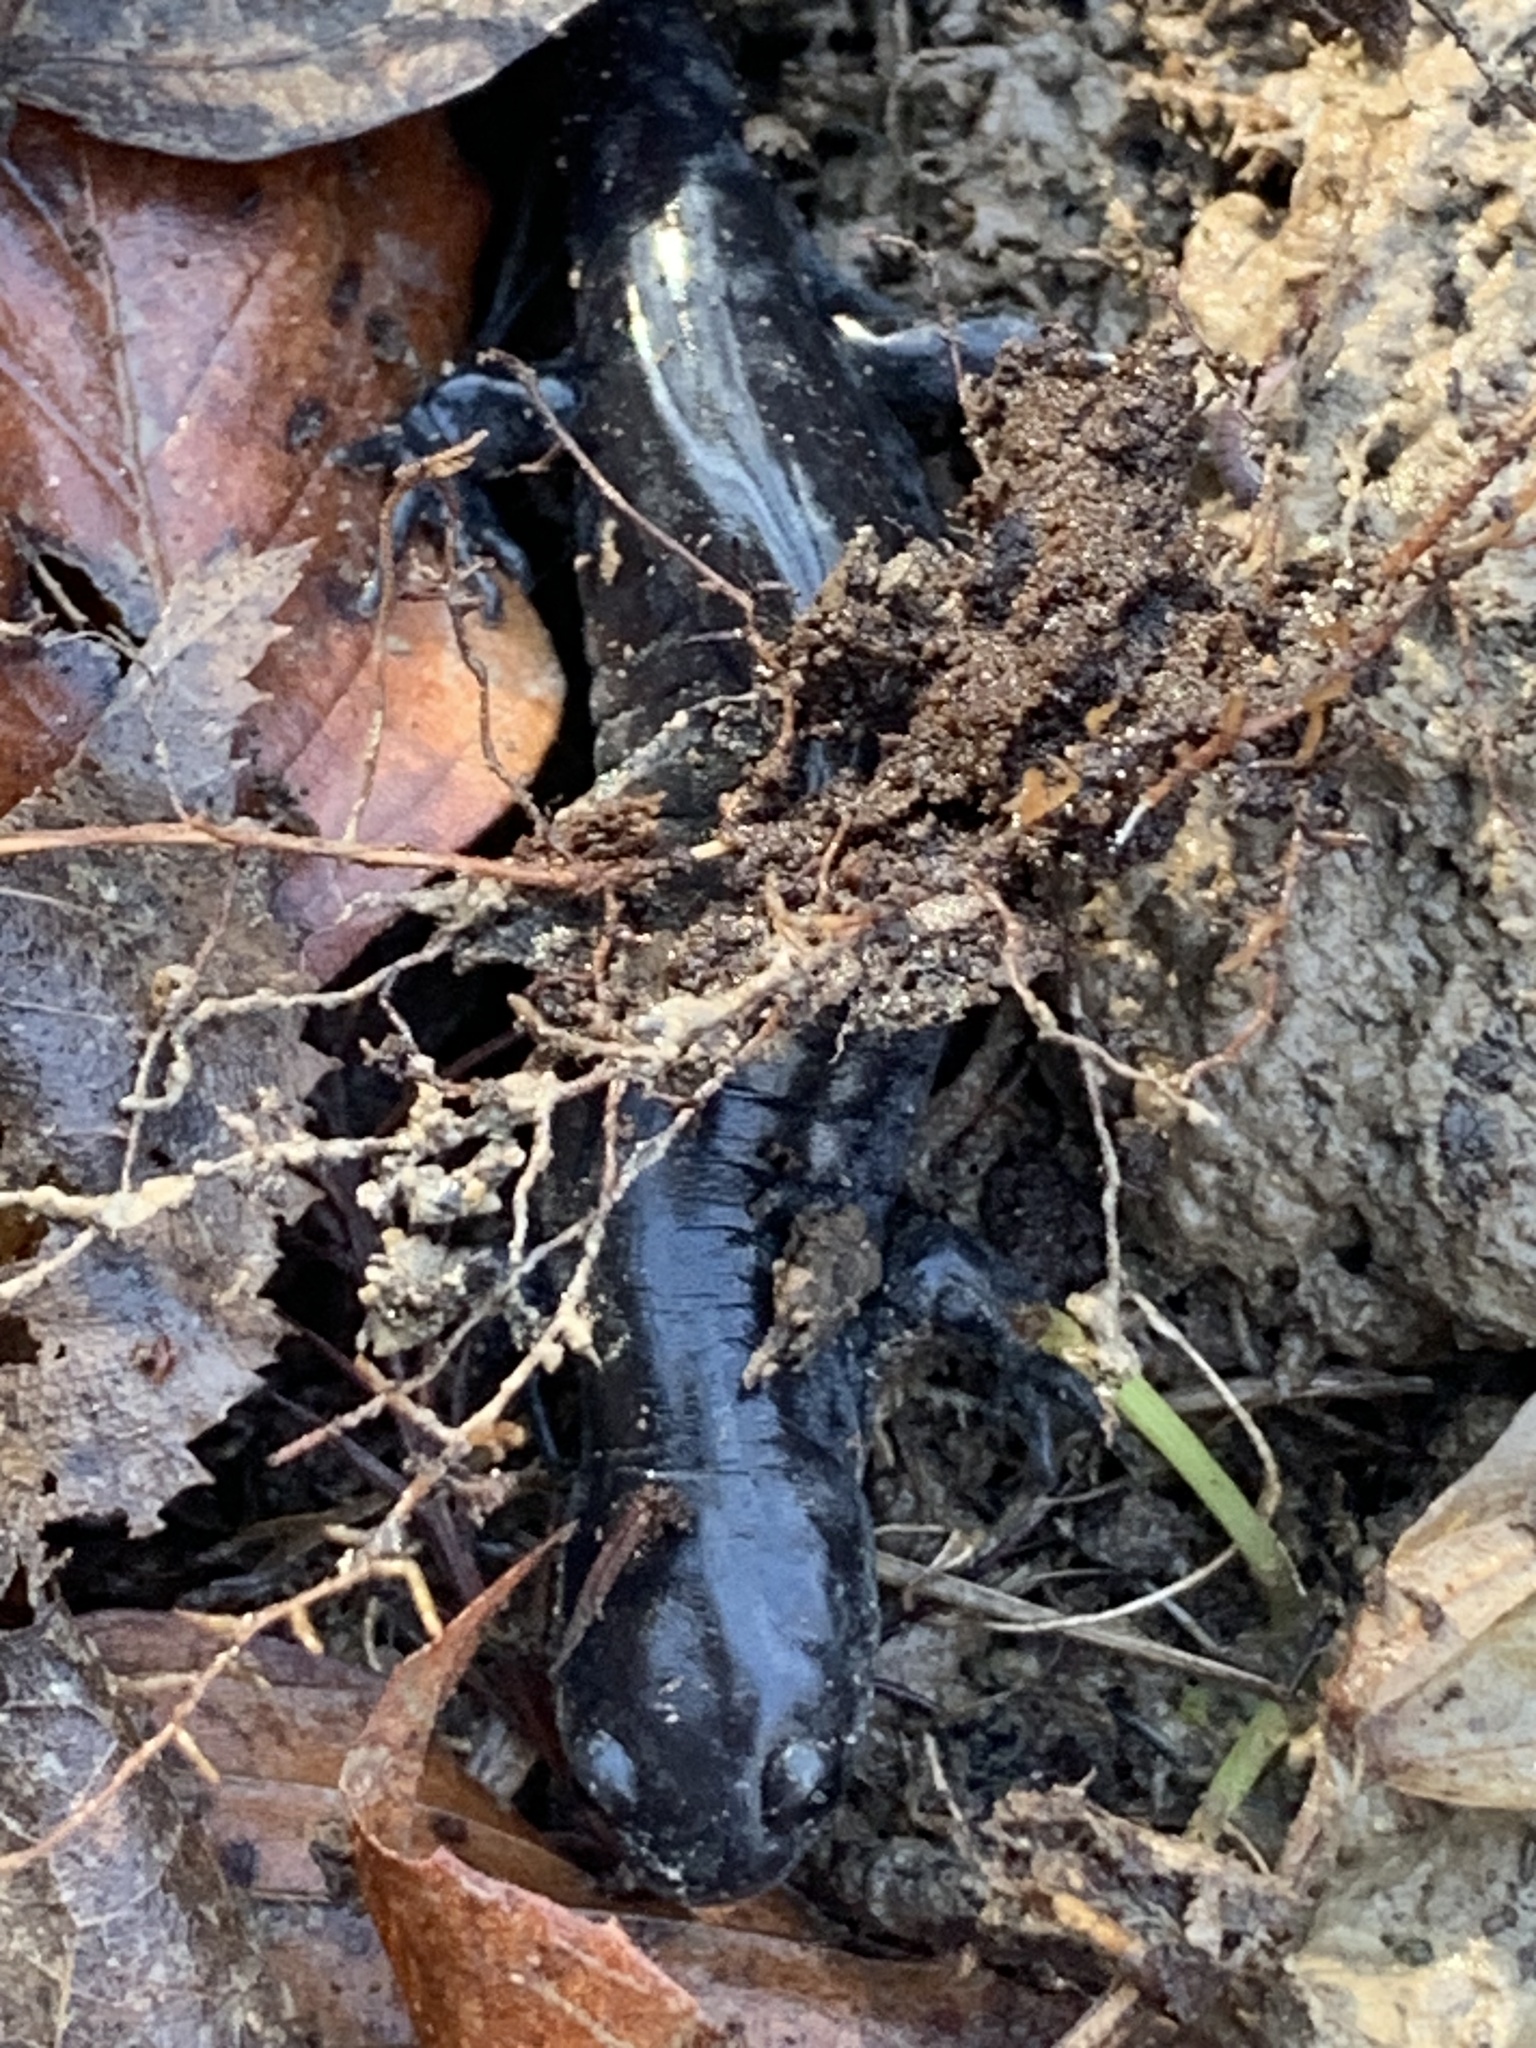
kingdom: Animalia
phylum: Chordata
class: Amphibia
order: Caudata
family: Ambystomatidae
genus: Ambystoma
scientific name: Ambystoma texanum
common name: Small-mouth salamander
